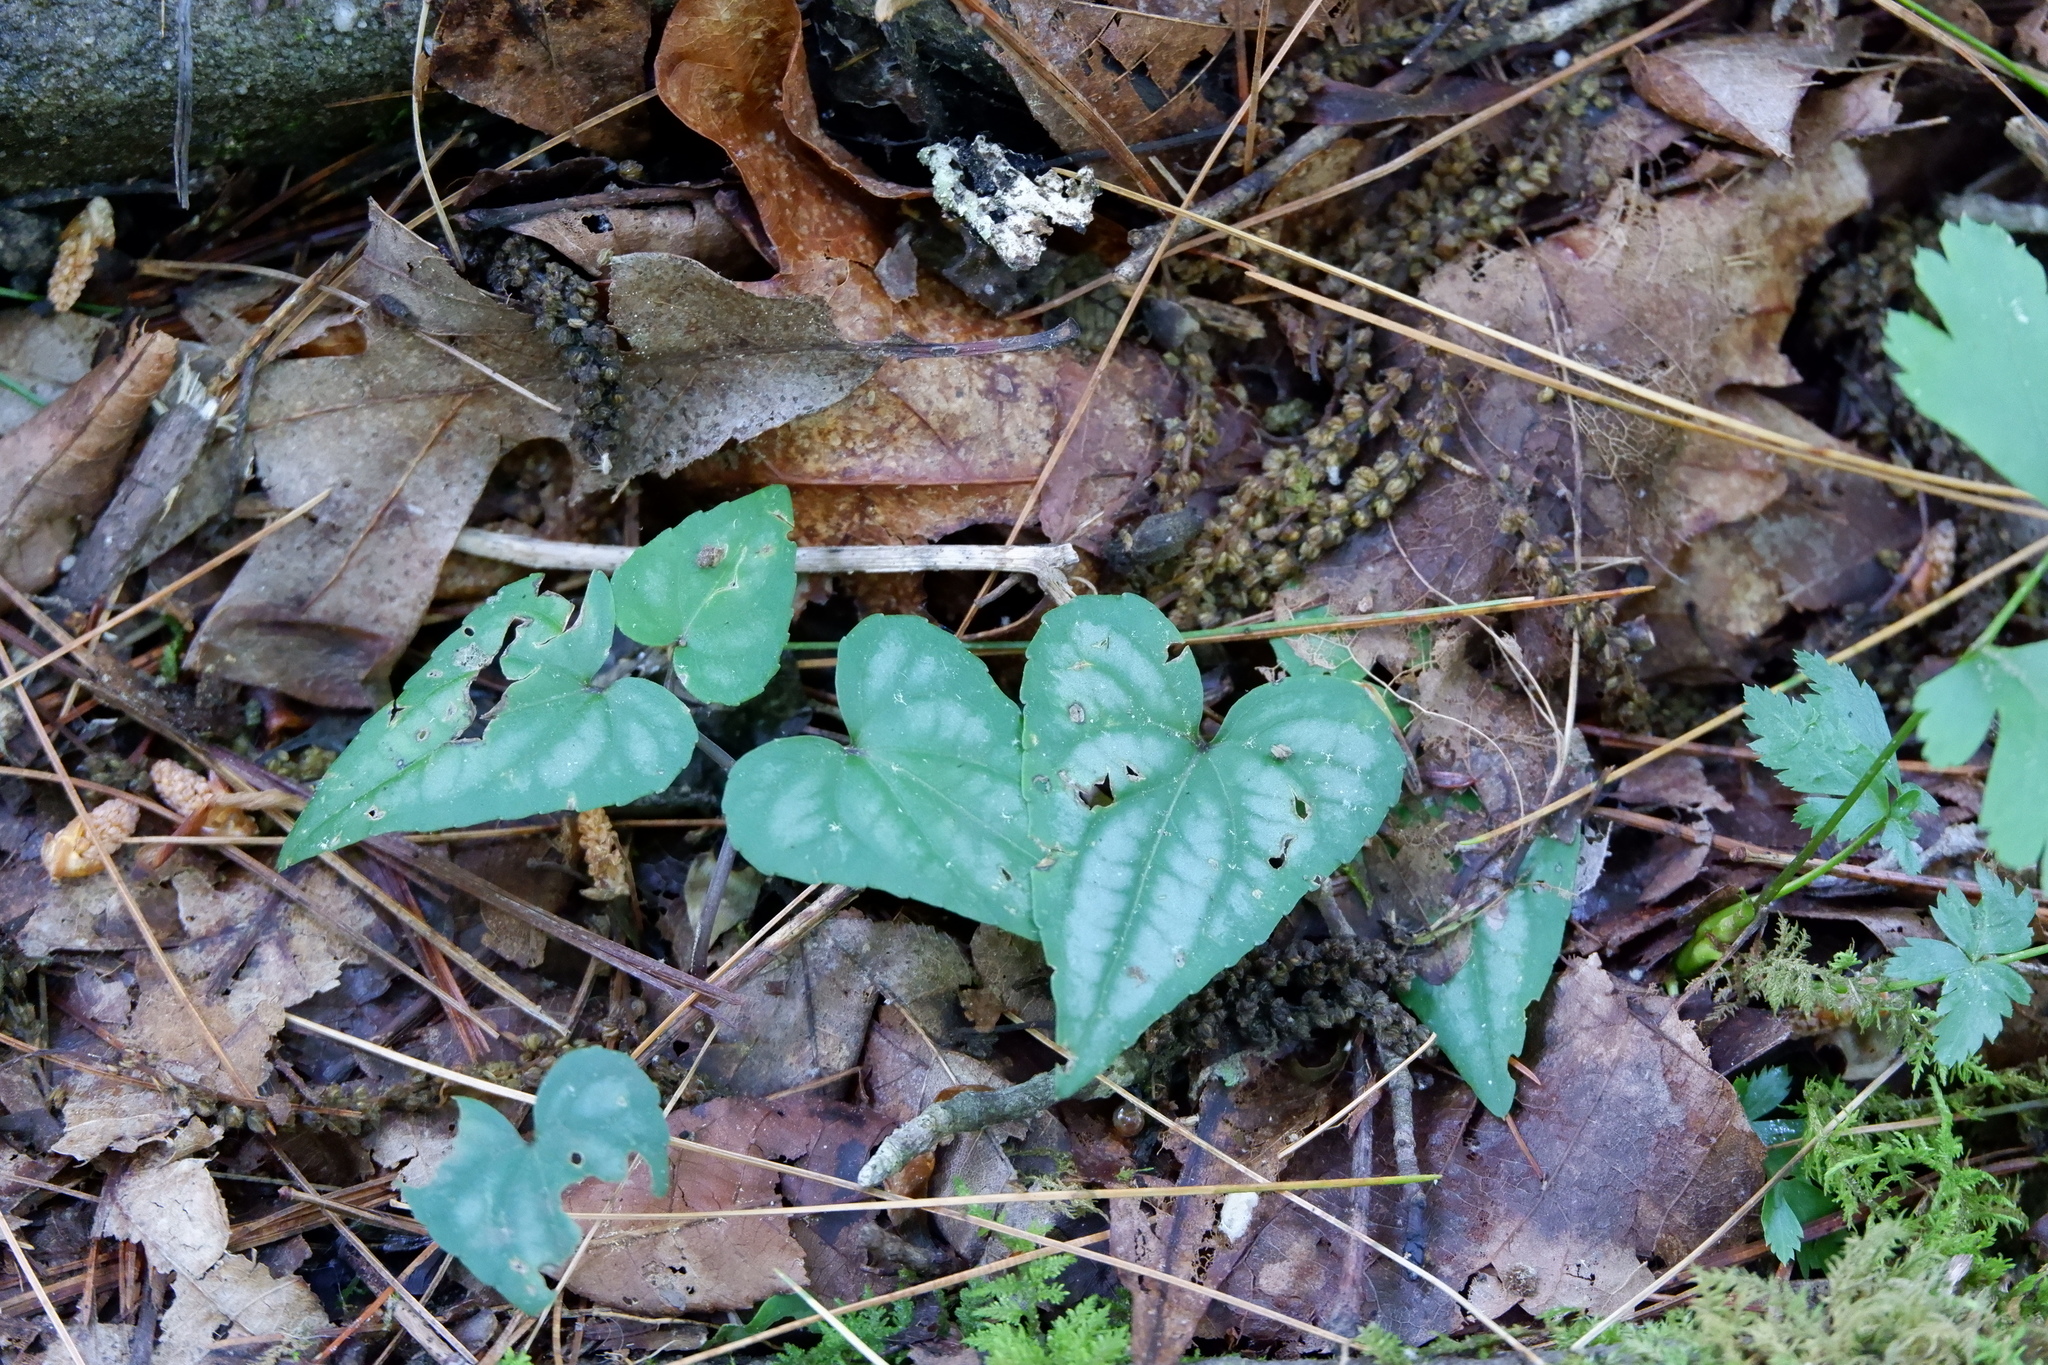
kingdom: Plantae
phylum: Tracheophyta
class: Magnoliopsida
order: Malpighiales
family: Violaceae
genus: Viola
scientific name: Viola hastata
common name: Spear-leaf violet
